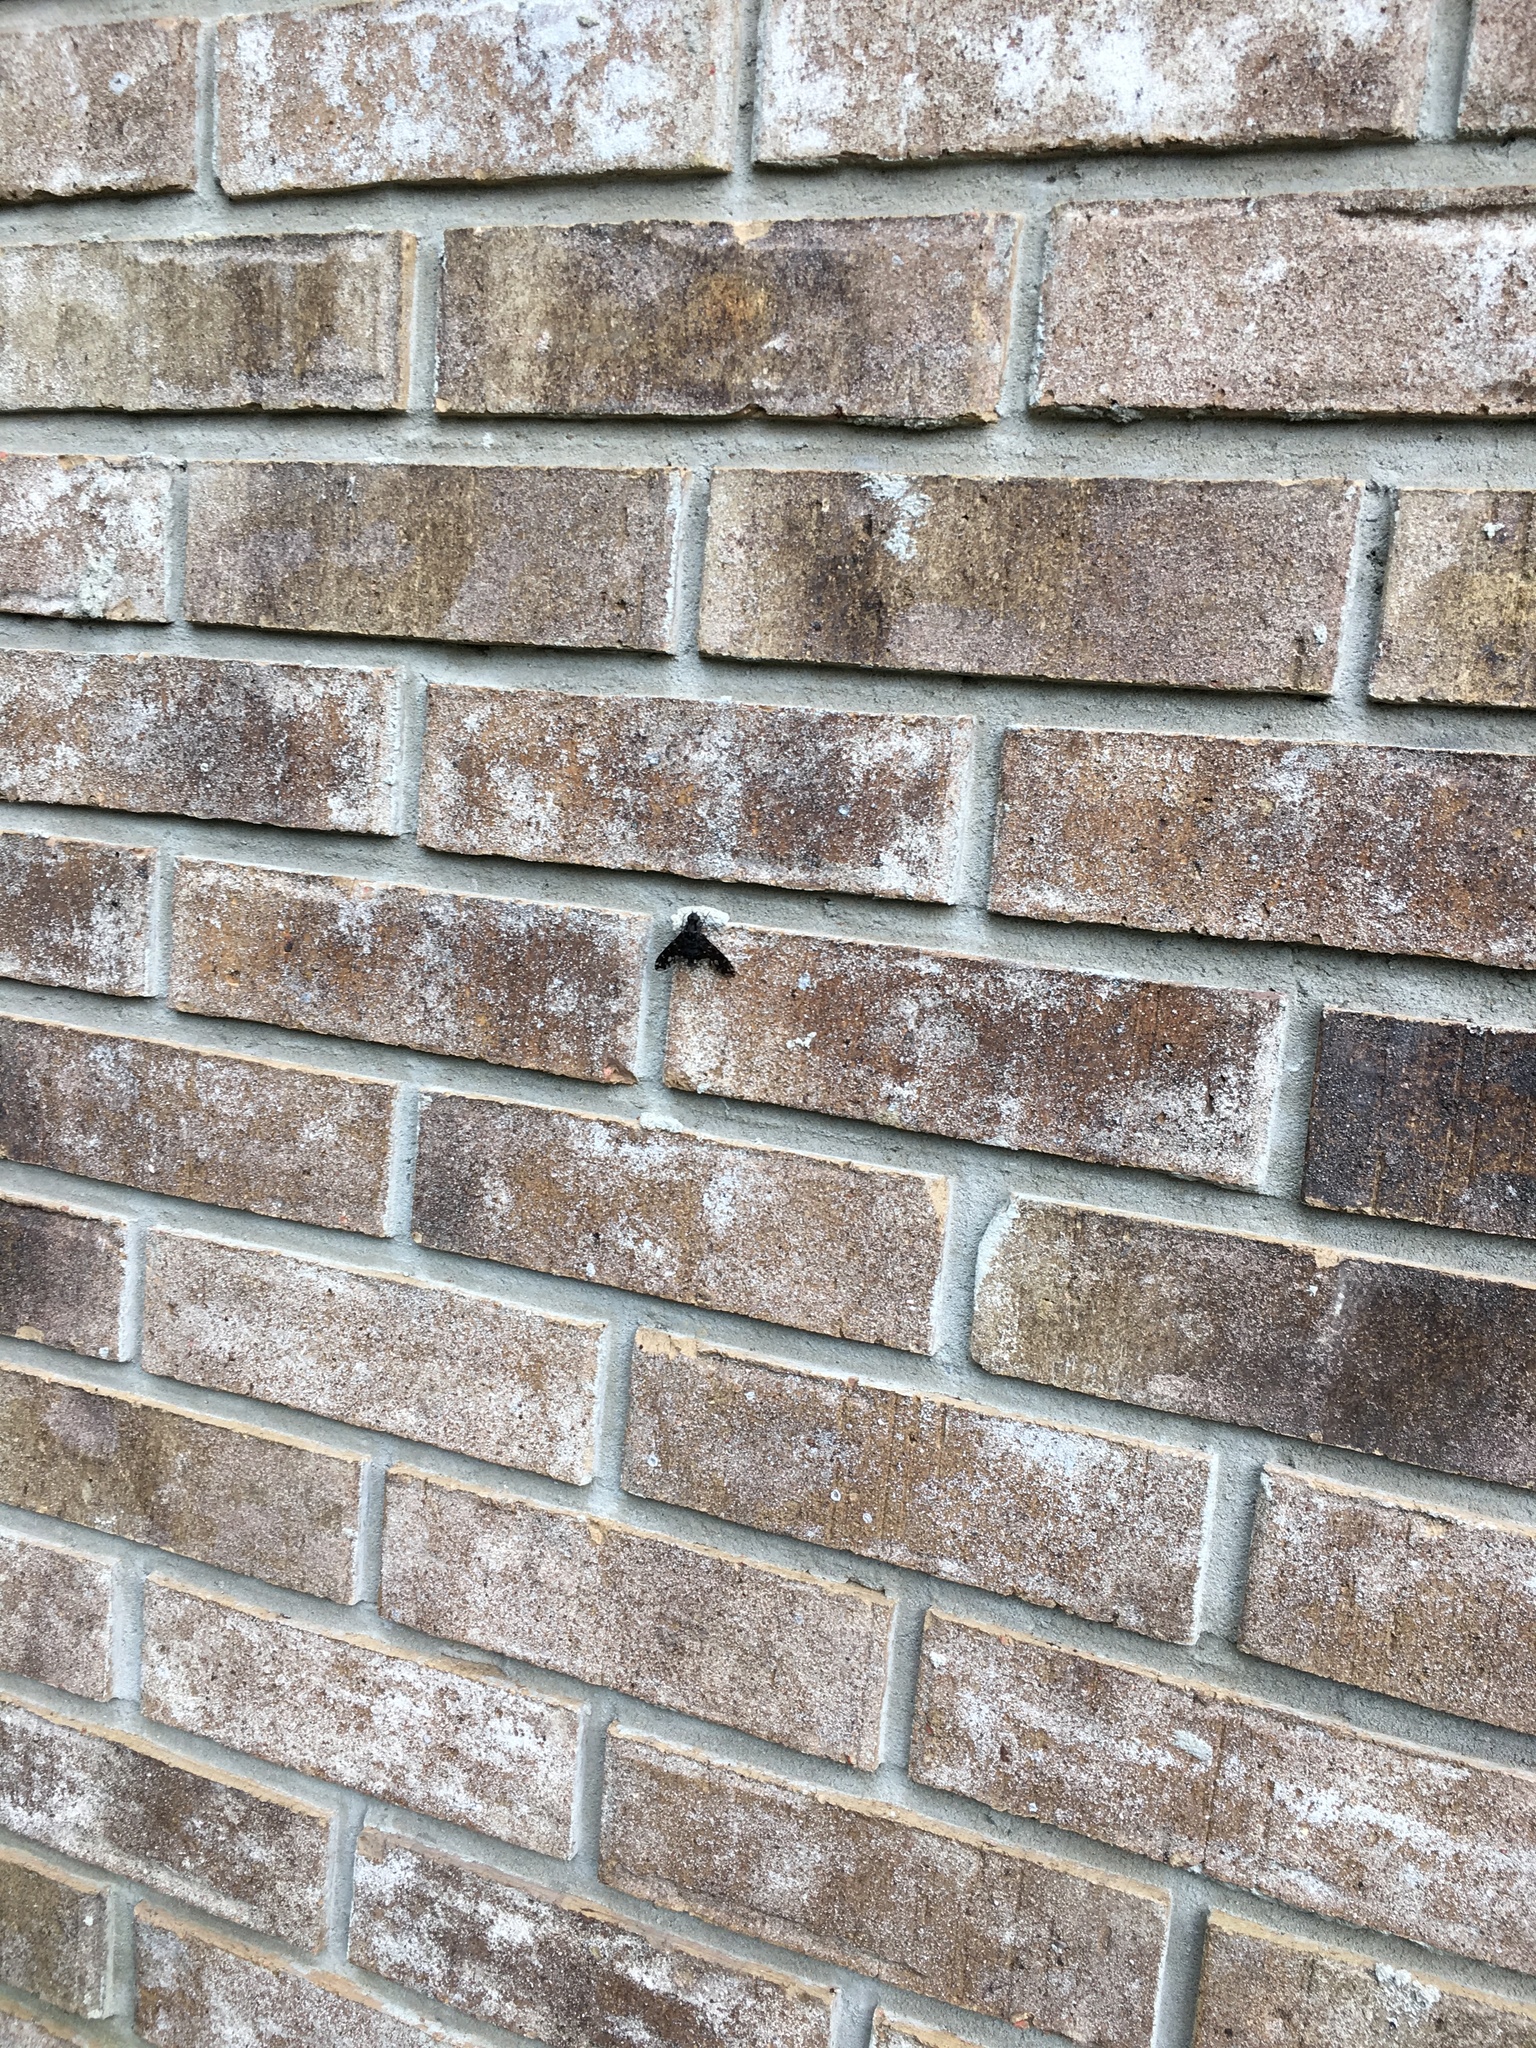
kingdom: Animalia
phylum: Arthropoda
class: Insecta
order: Diptera
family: Bombyliidae
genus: Xenox
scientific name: Xenox tigrinus
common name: Tiger bee fly
